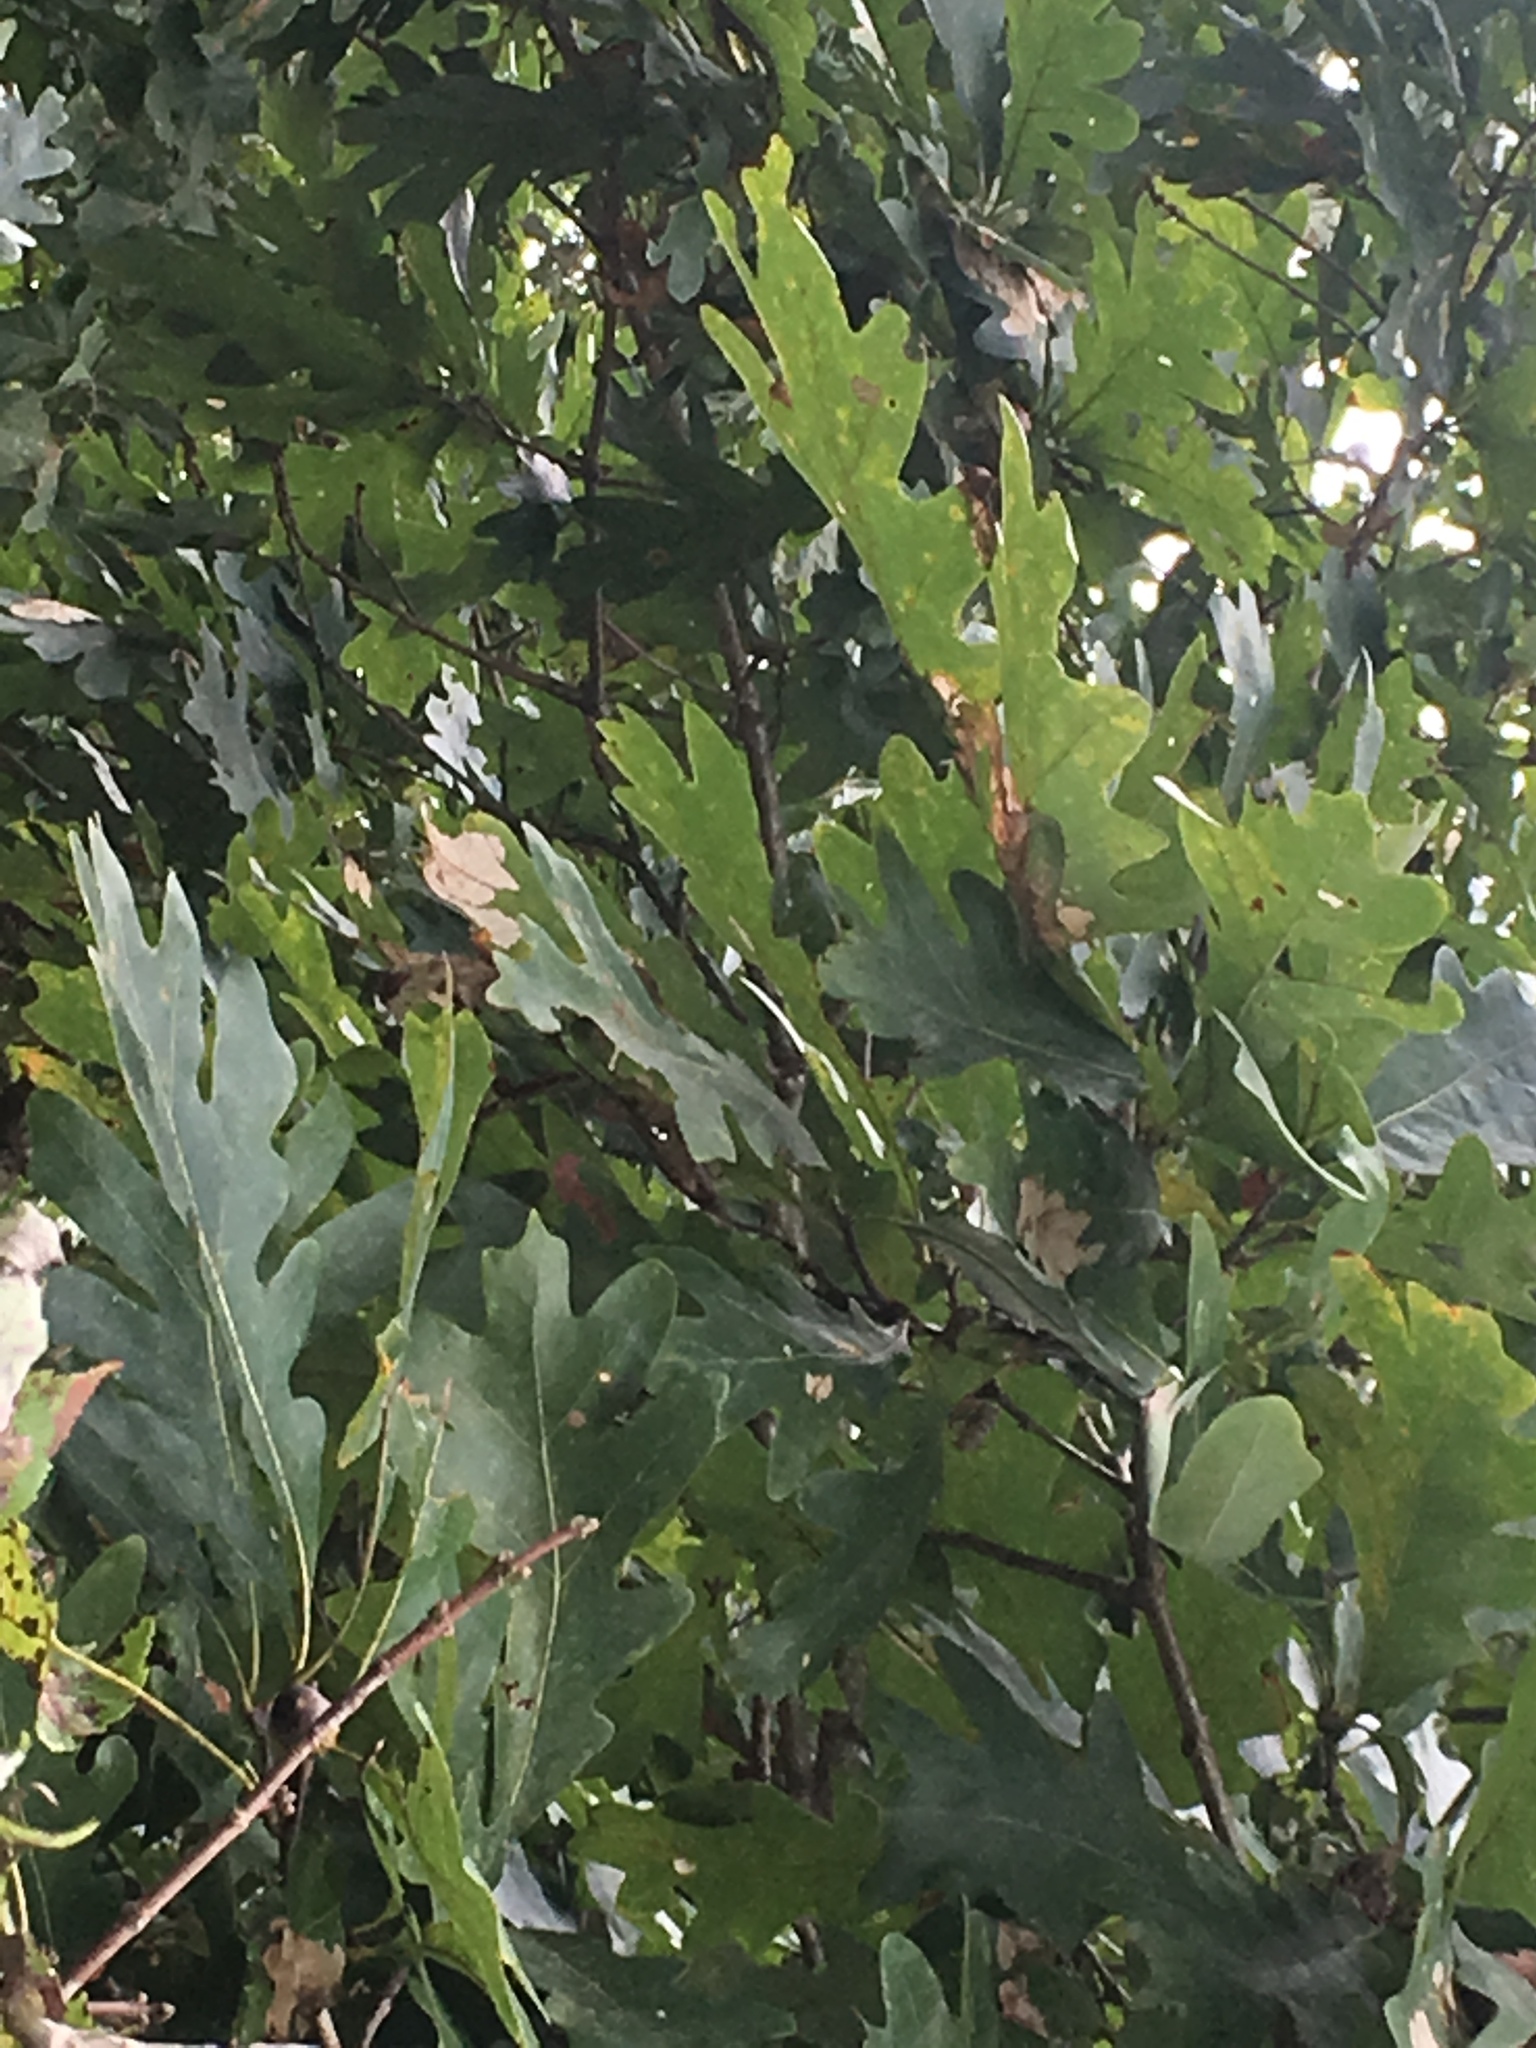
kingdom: Plantae
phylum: Tracheophyta
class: Magnoliopsida
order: Fagales
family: Fagaceae
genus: Quercus
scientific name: Quercus alba
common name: White oak
